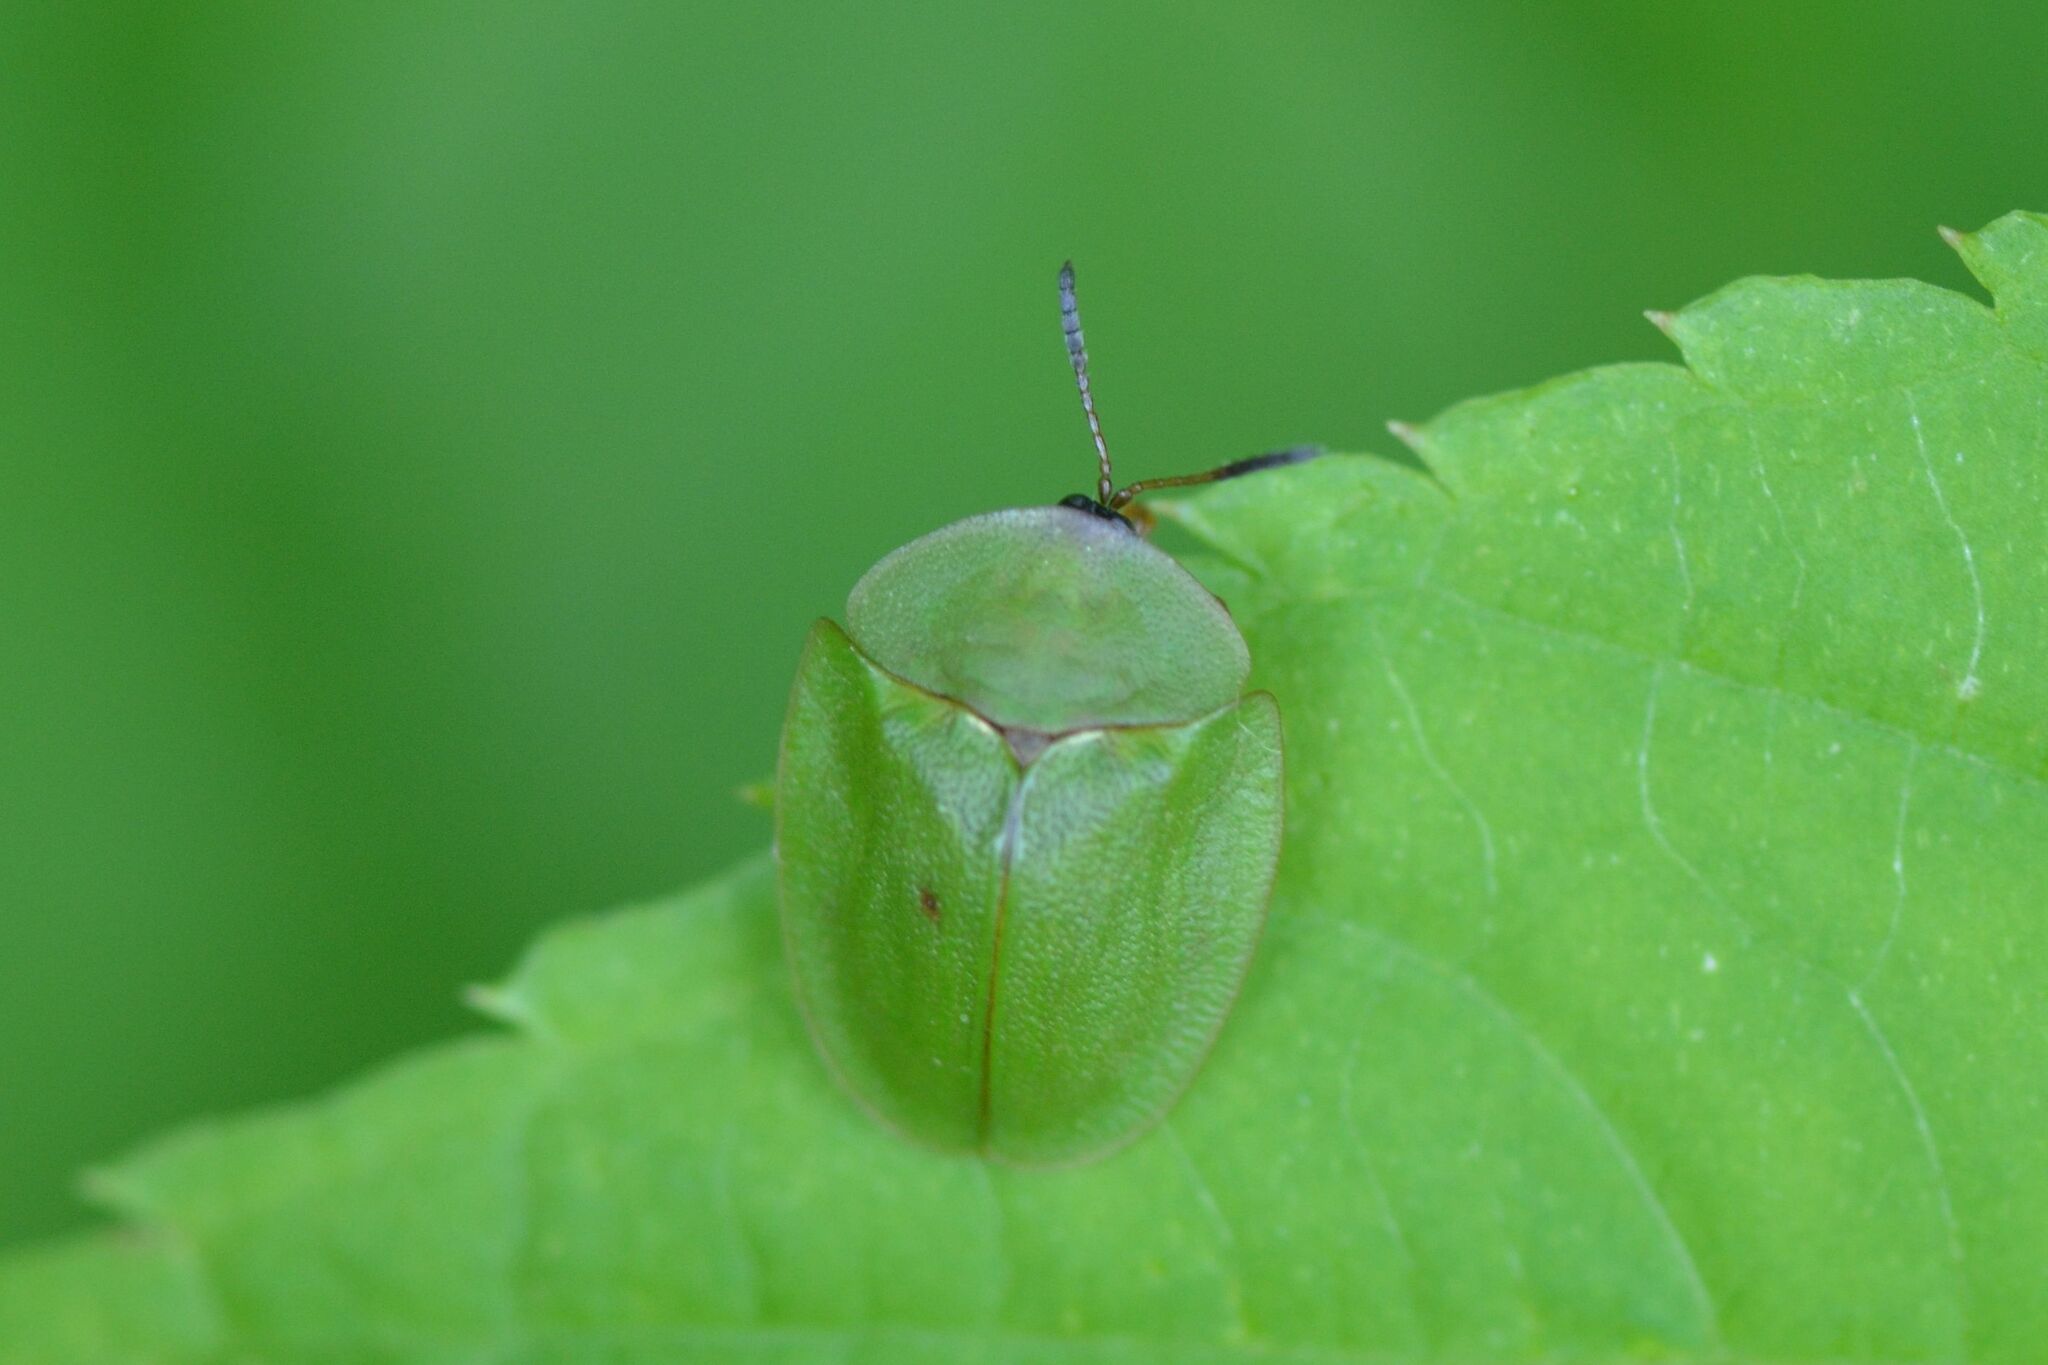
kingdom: Animalia
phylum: Arthropoda
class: Insecta
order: Coleoptera
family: Chrysomelidae
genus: Cassida
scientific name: Cassida viridis
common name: Green tortoise beetle
